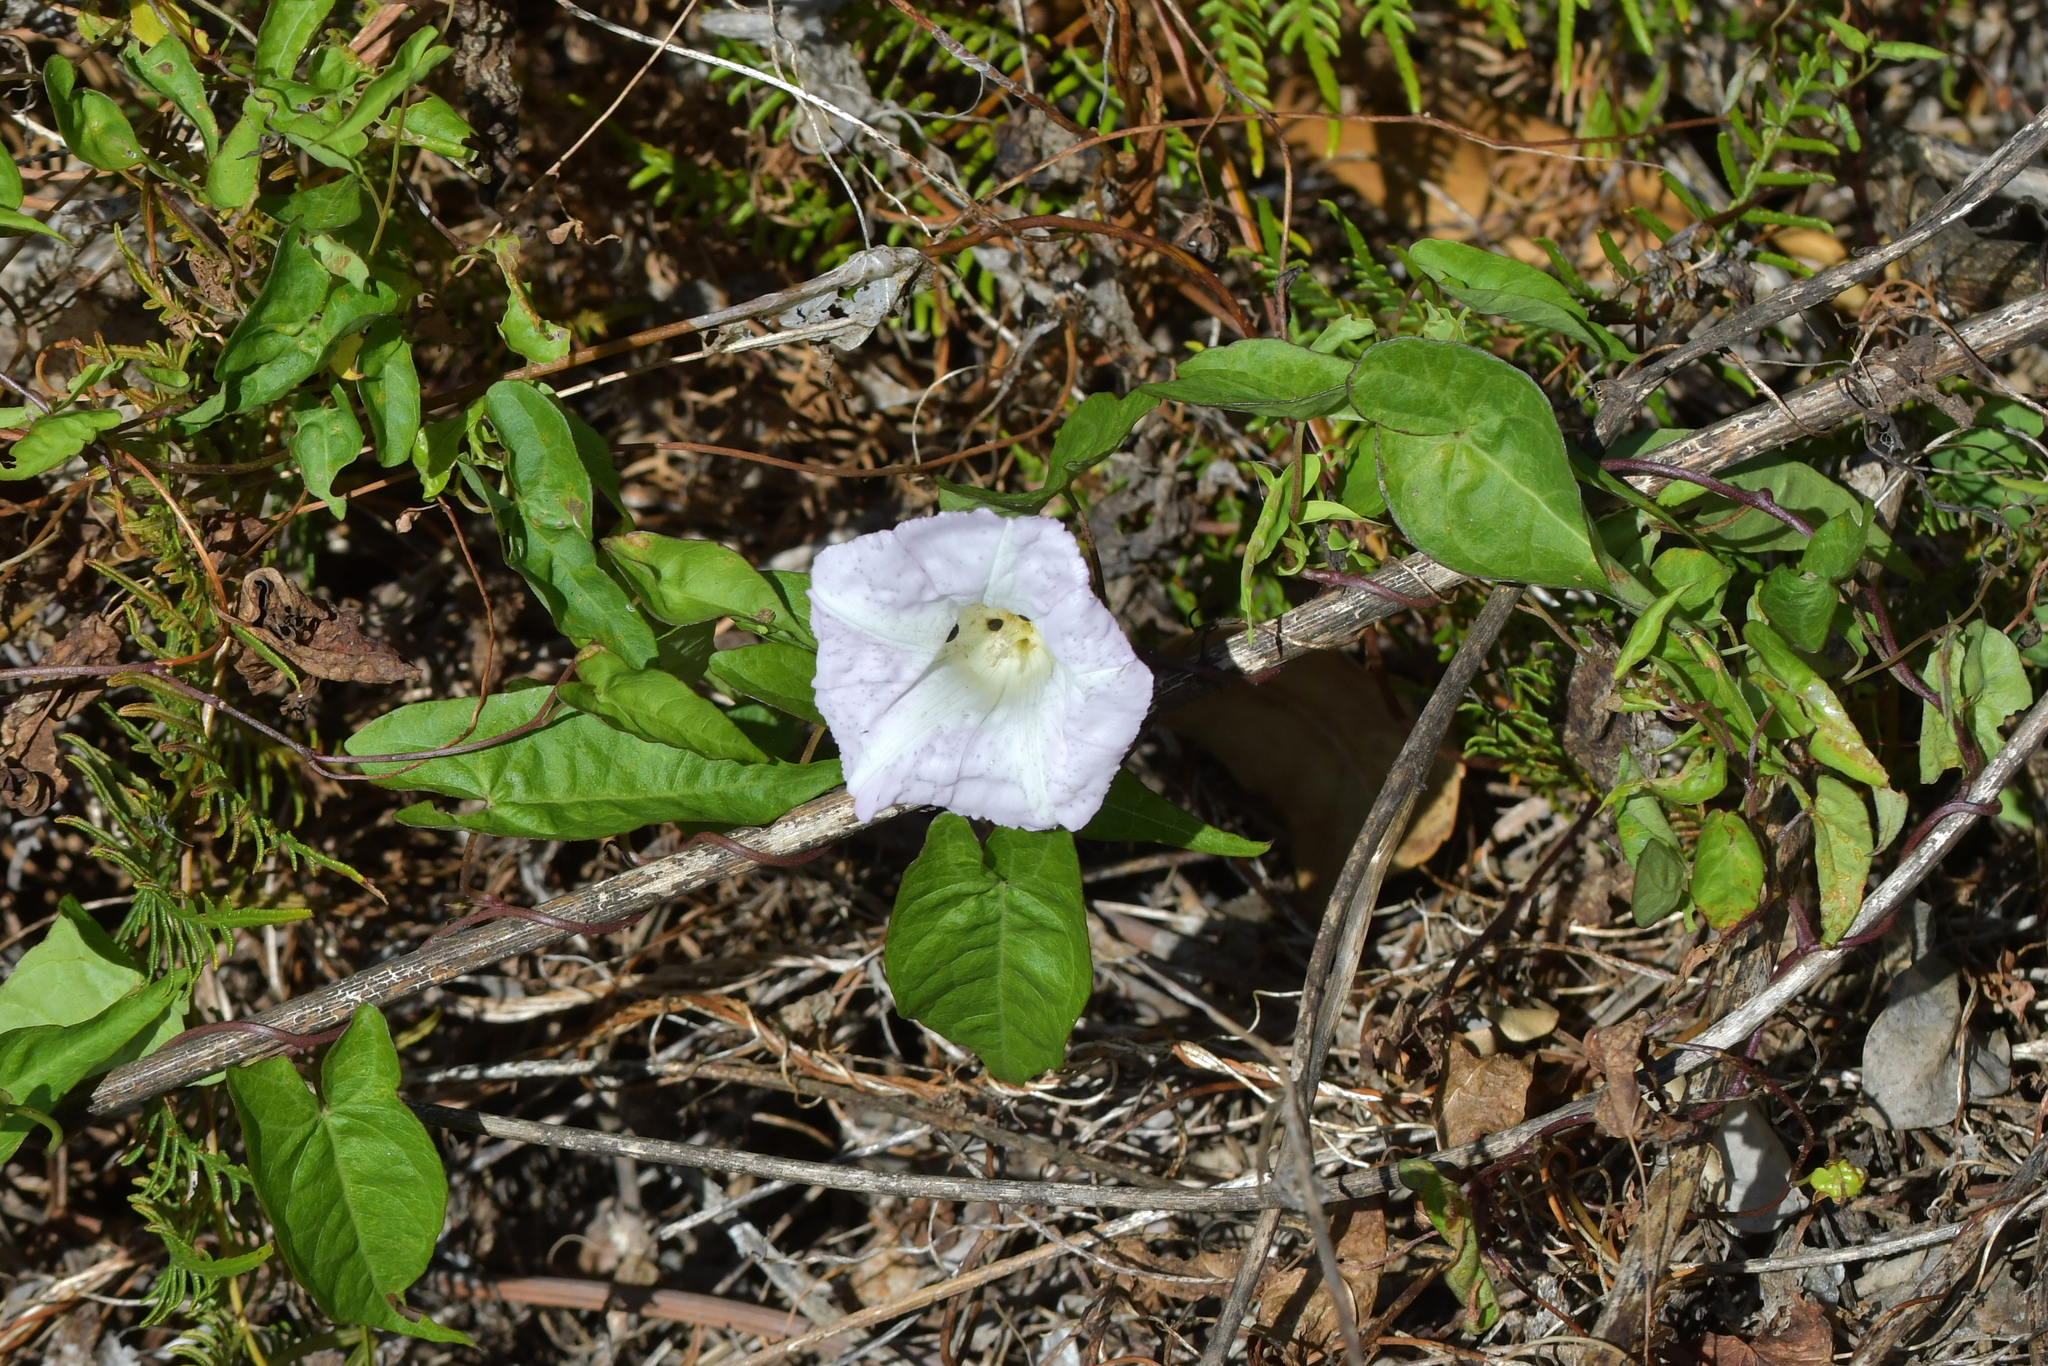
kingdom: Plantae
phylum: Tracheophyta
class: Magnoliopsida
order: Solanales
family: Convolvulaceae
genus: Calystegia
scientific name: Calystegia sepium
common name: Hedge bindweed
